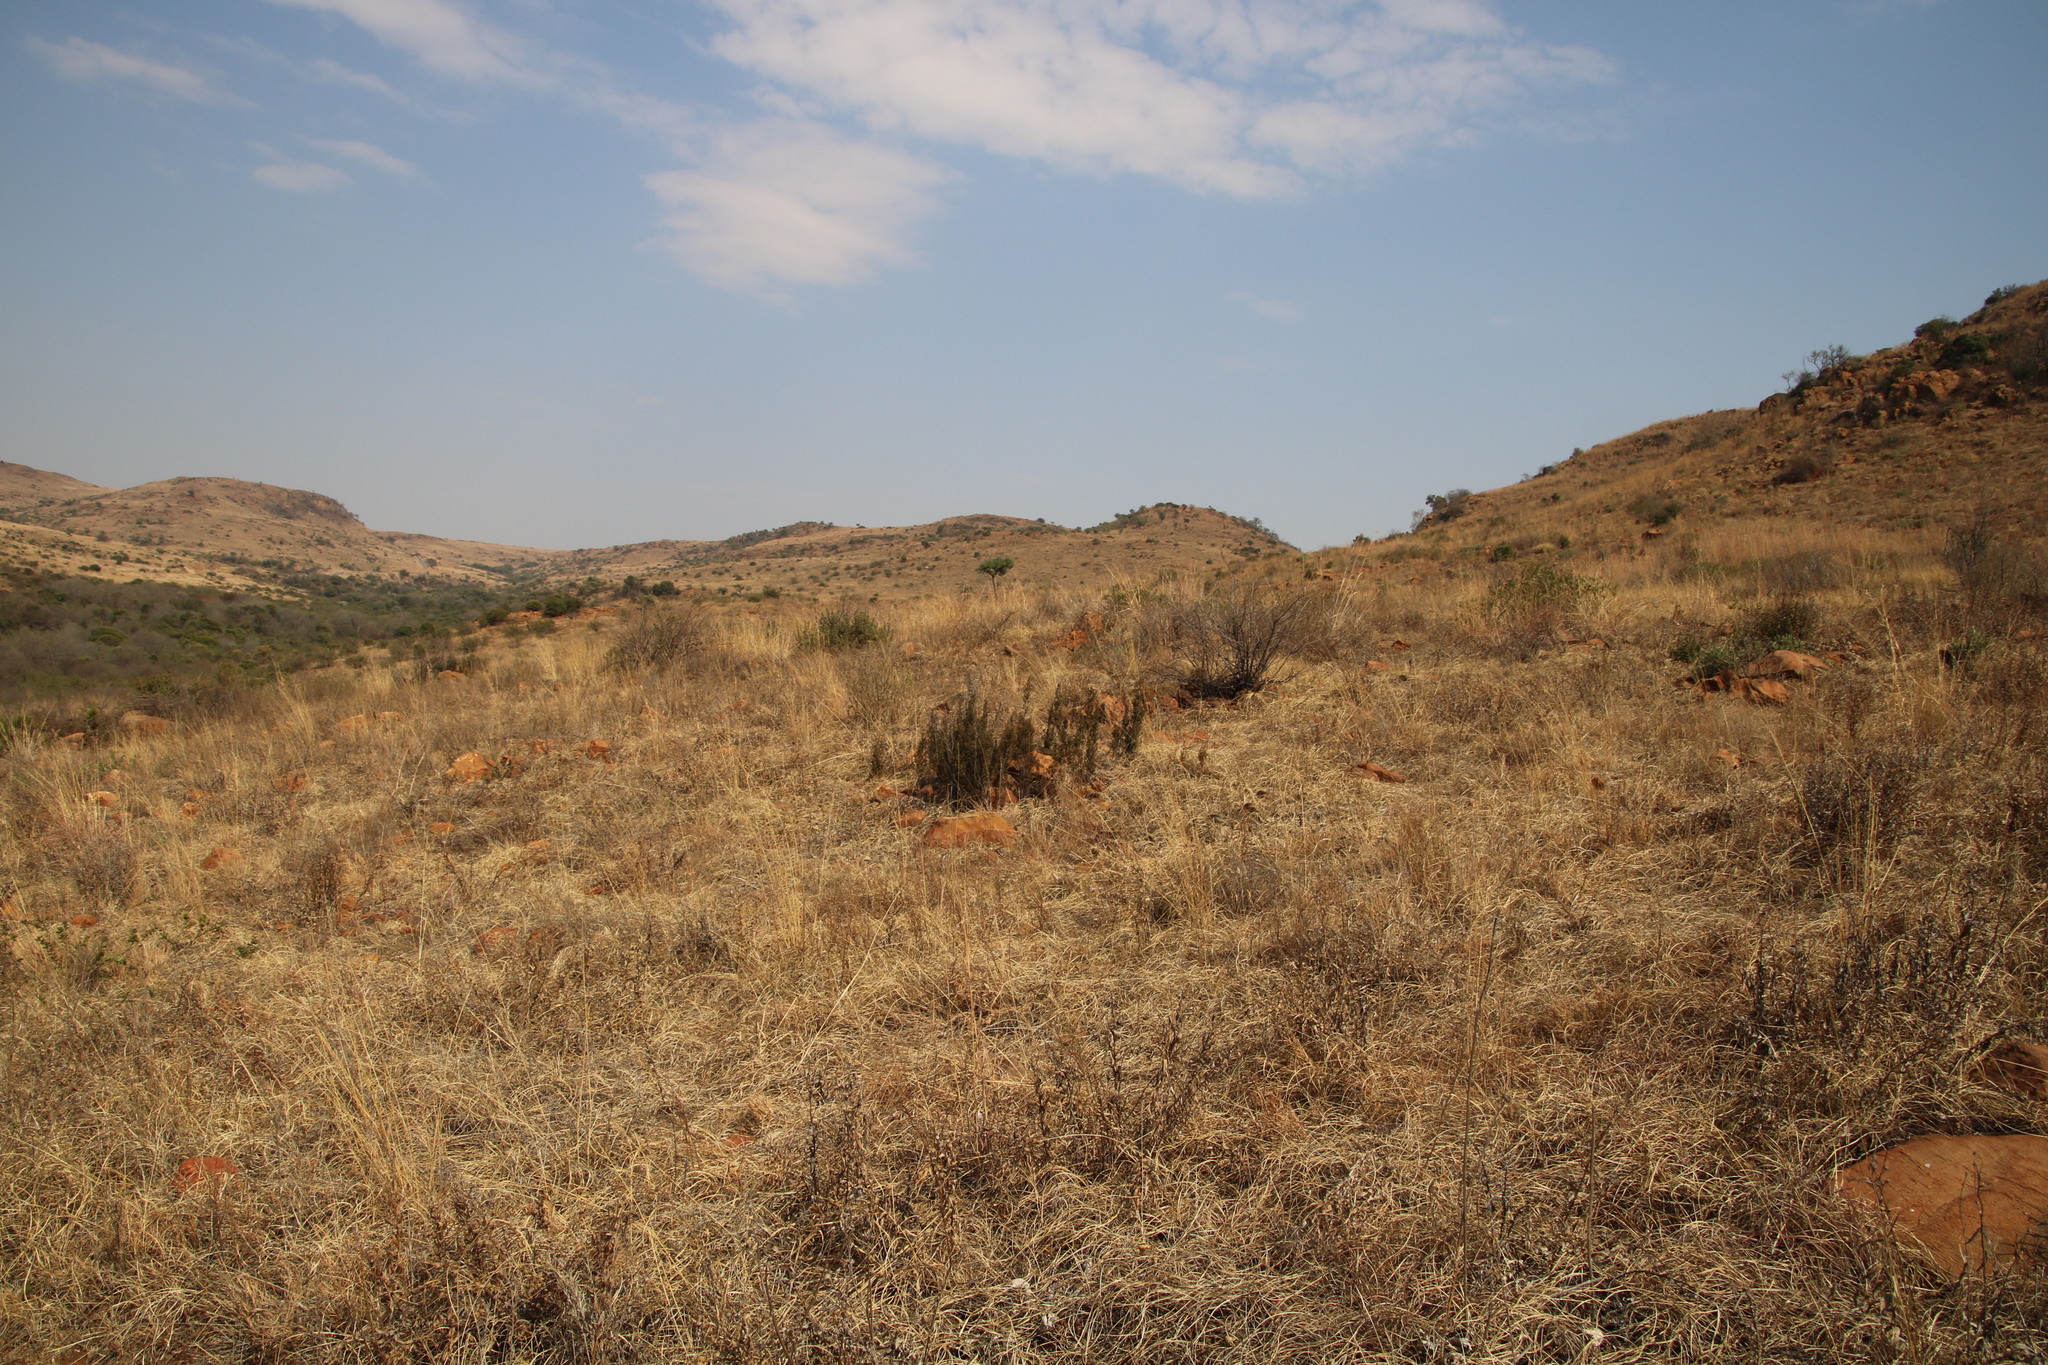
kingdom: Plantae
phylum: Tracheophyta
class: Magnoliopsida
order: Ericales
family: Primulaceae
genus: Myrsine
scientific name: Myrsine africana
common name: African-boxwood
